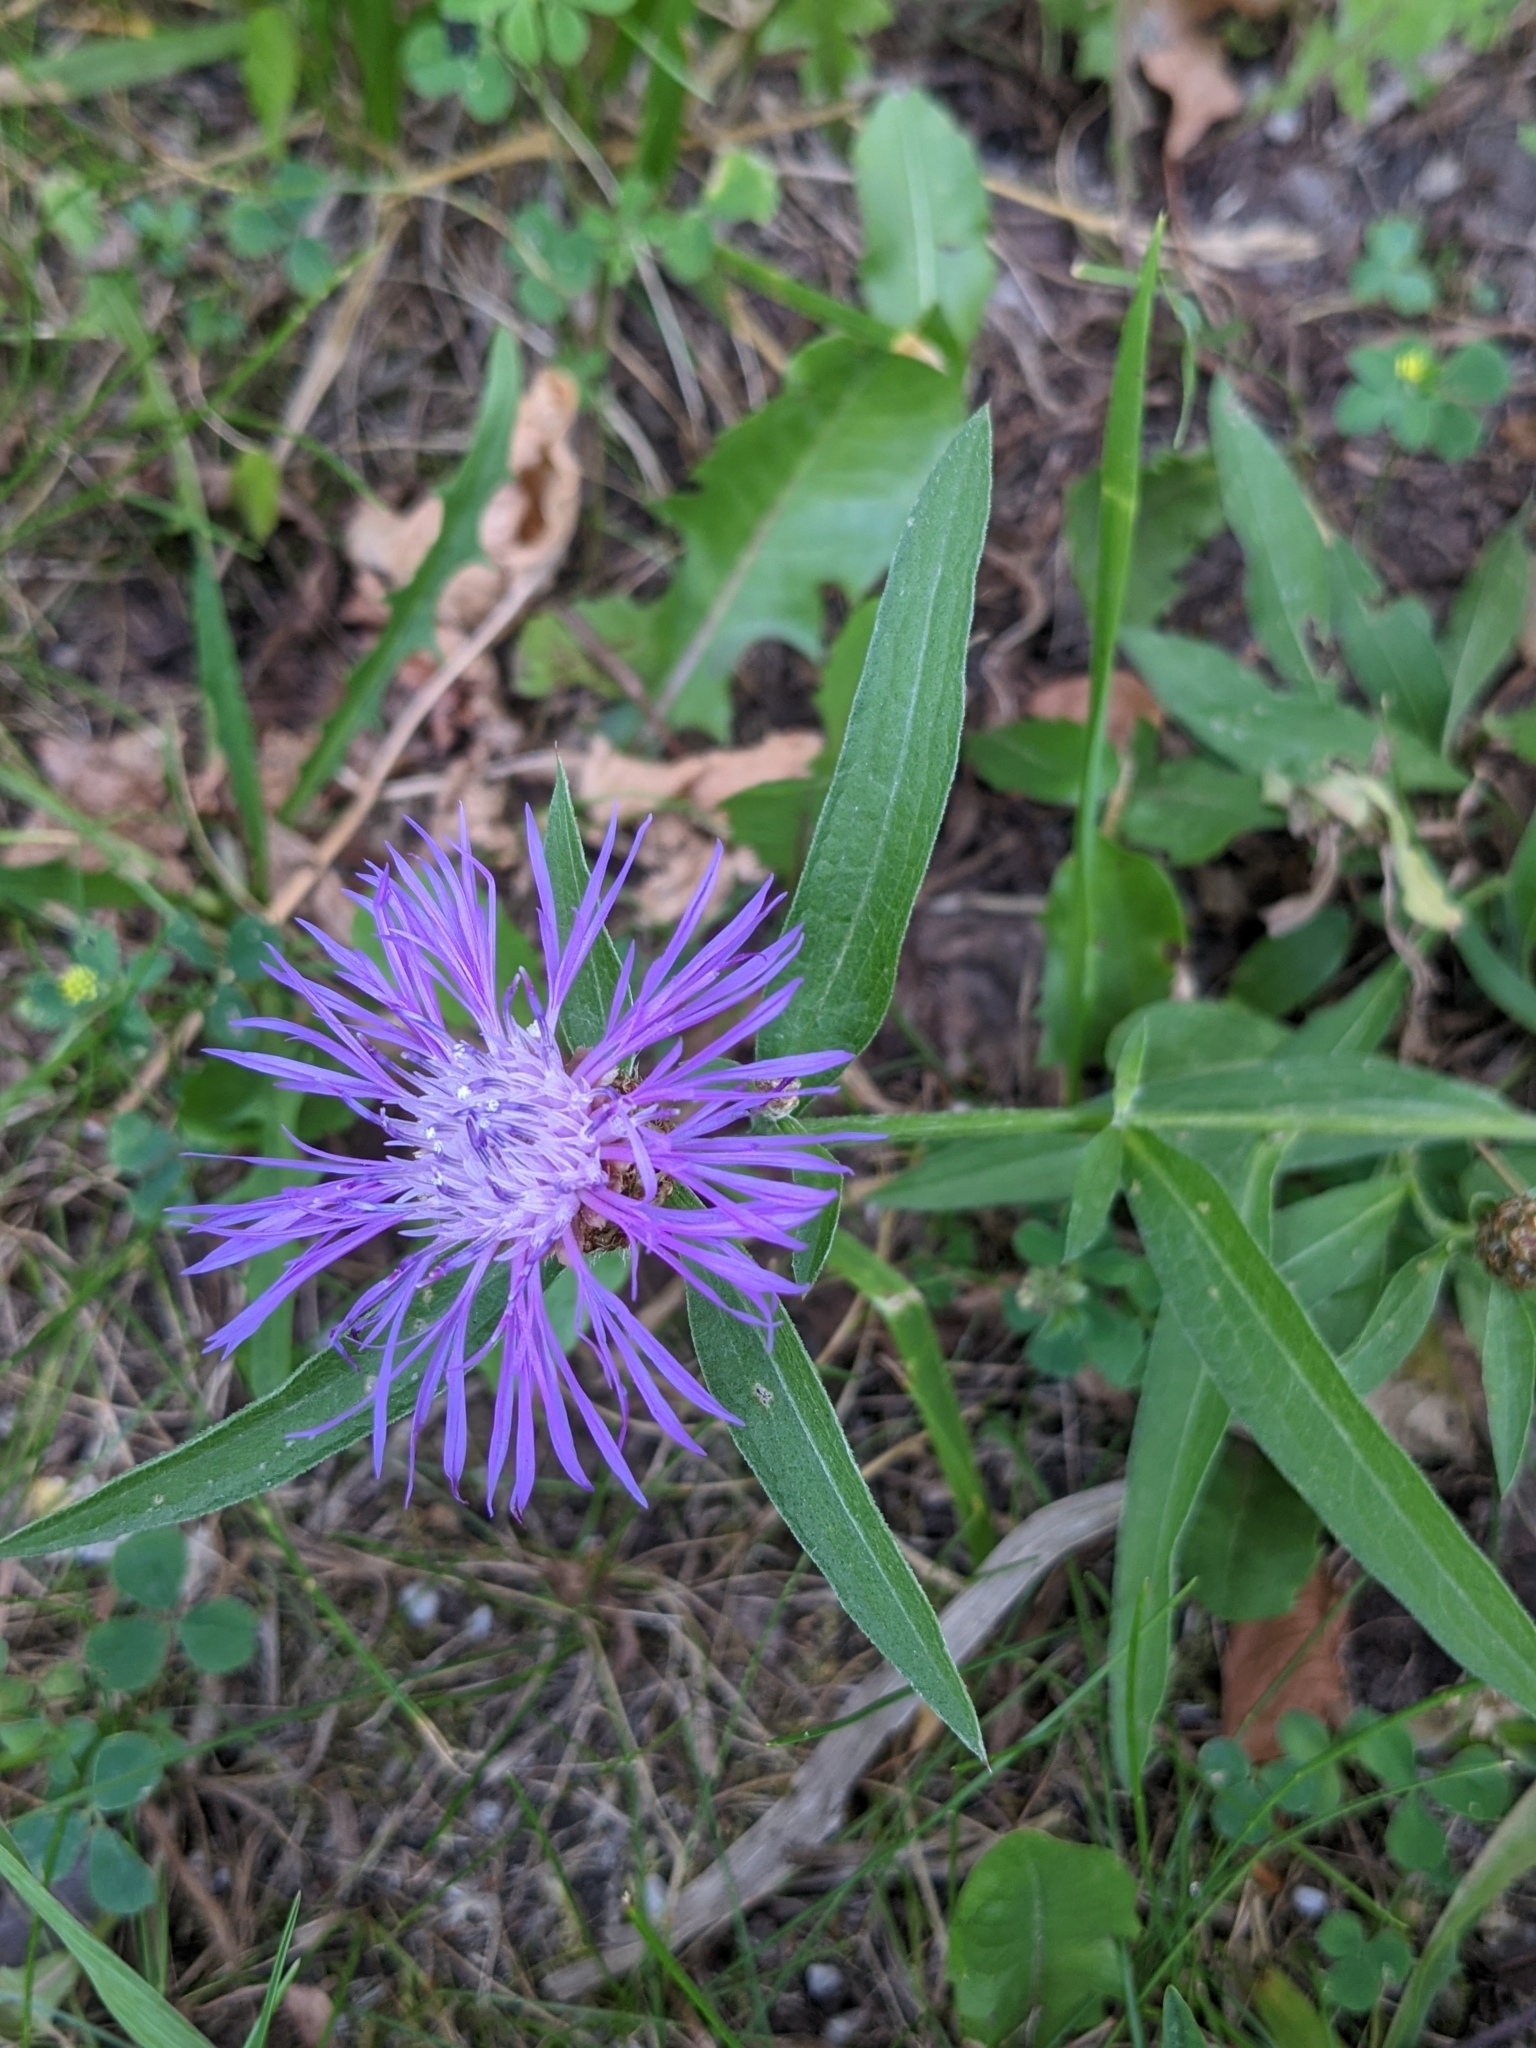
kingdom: Plantae
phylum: Tracheophyta
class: Magnoliopsida
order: Asterales
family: Asteraceae
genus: Centaurea
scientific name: Centaurea jacea
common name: Brown knapweed
